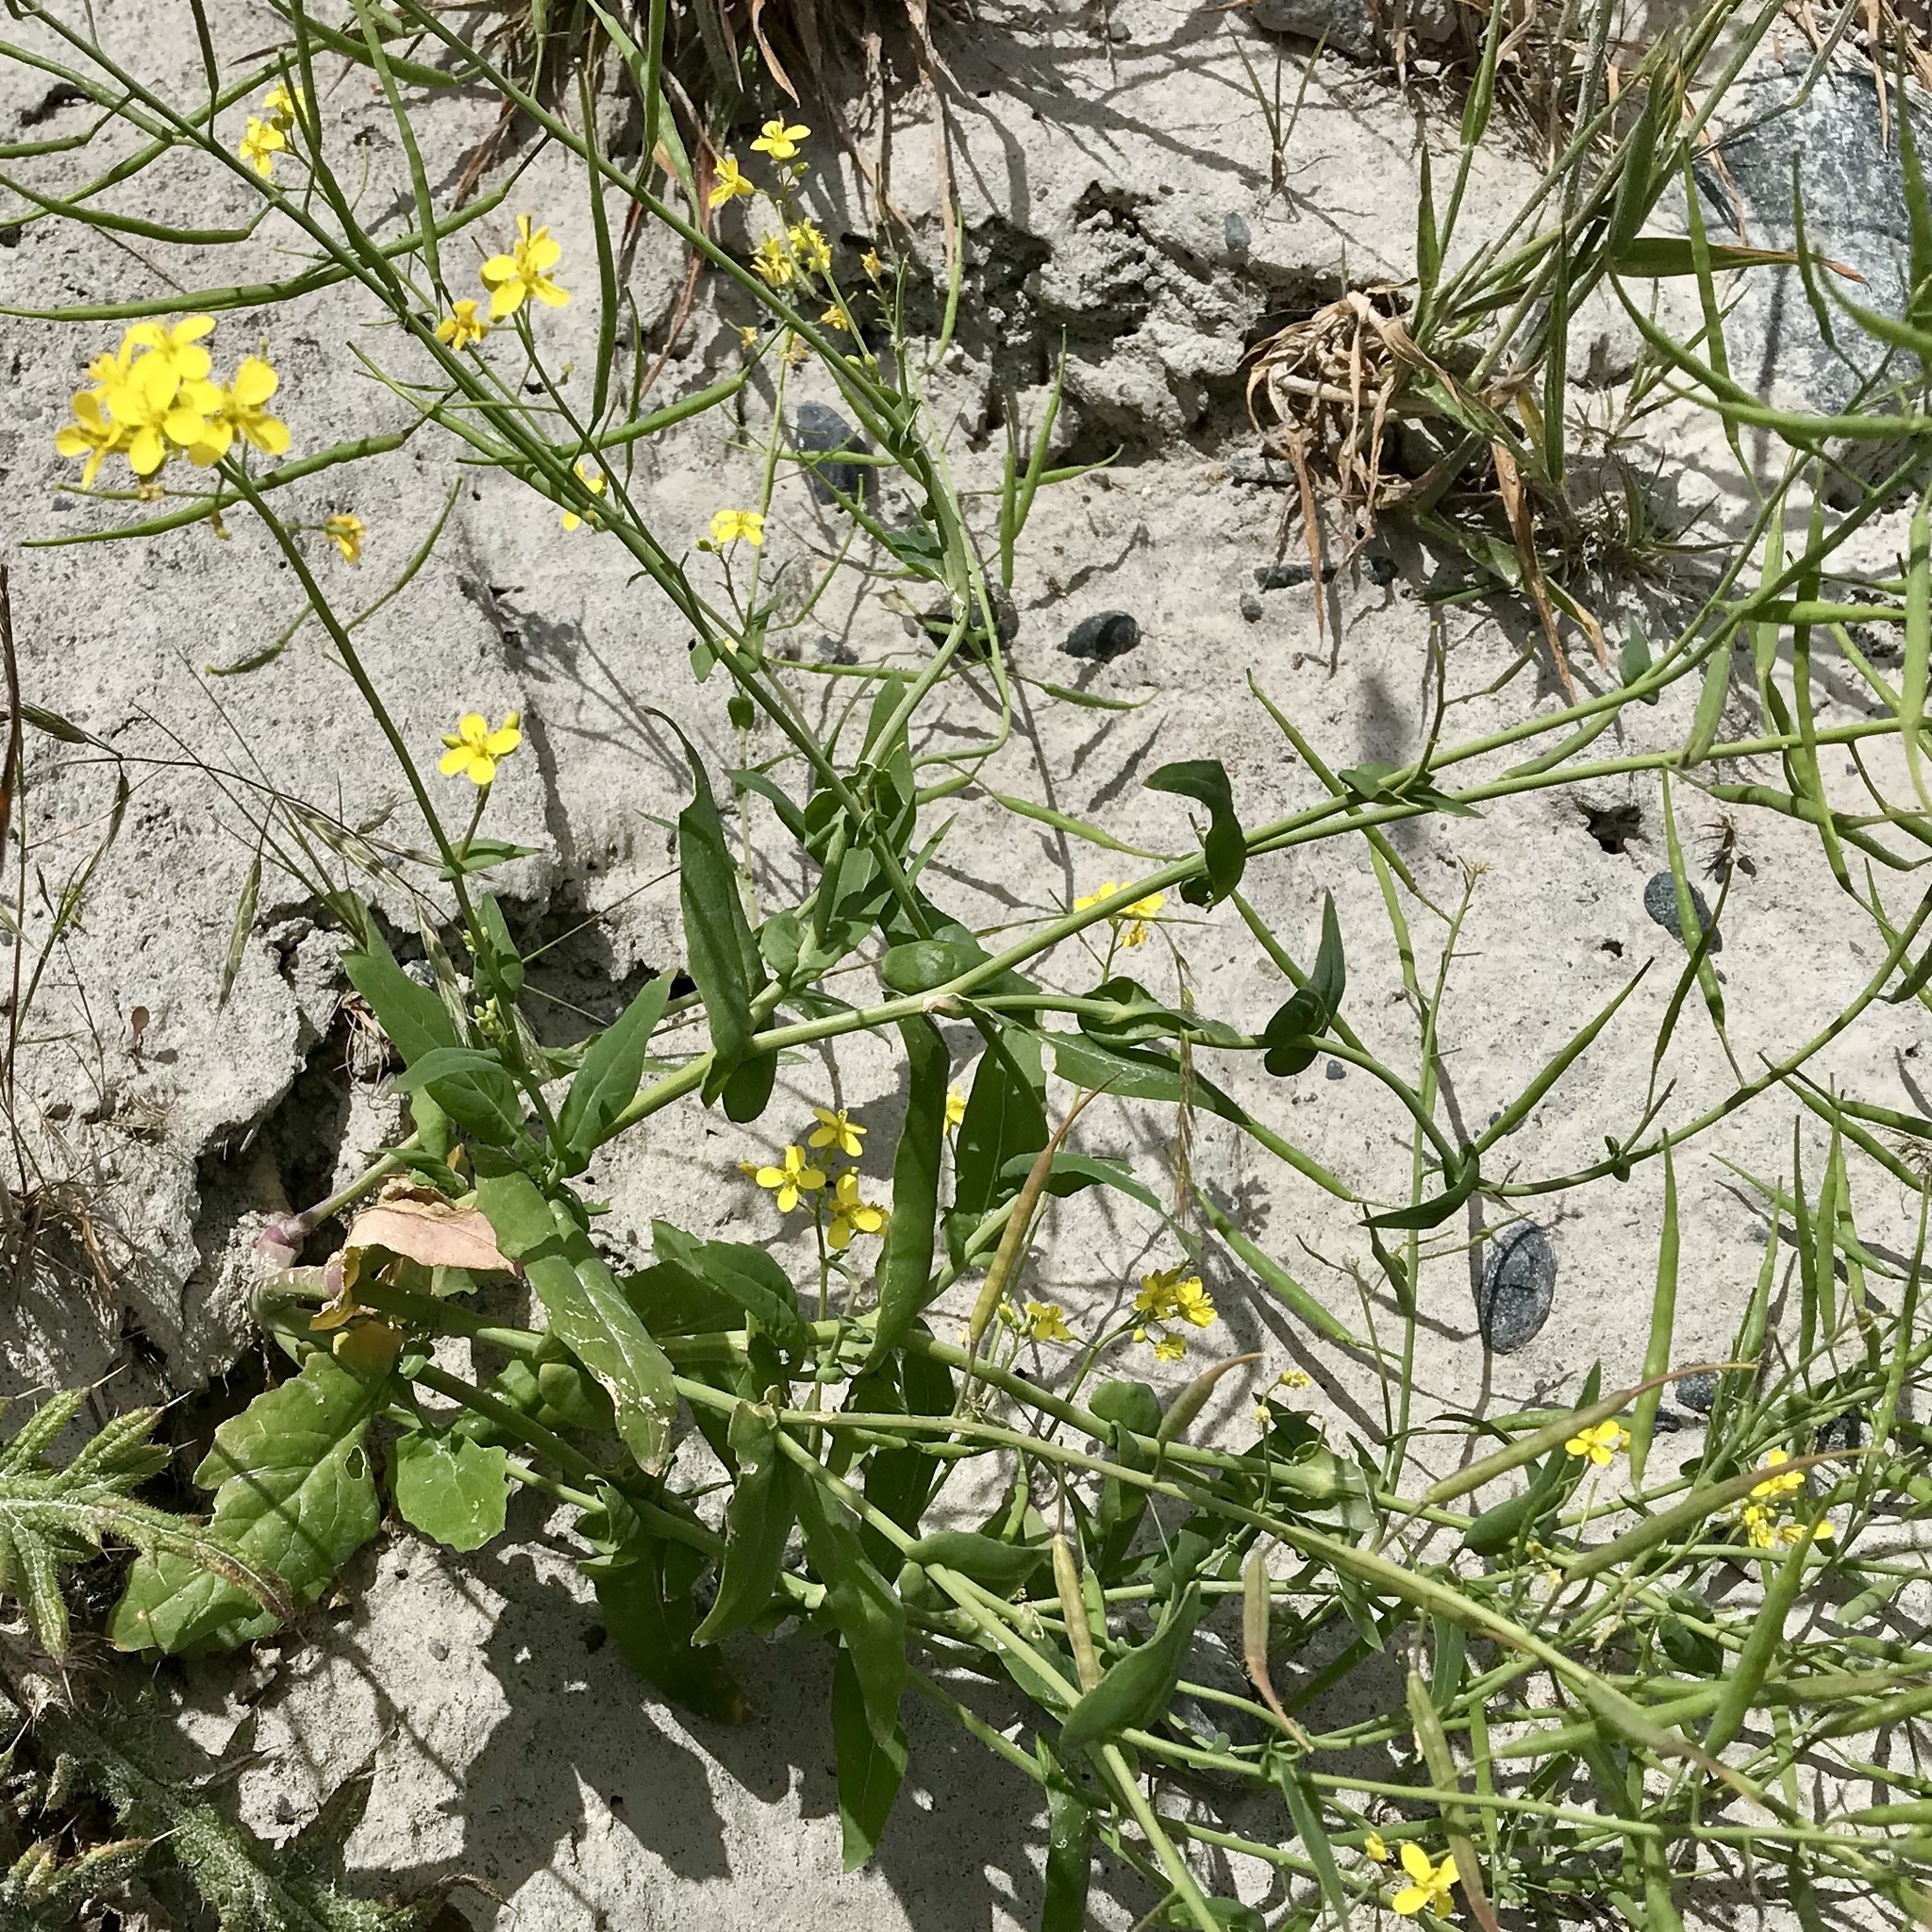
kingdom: Plantae
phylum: Tracheophyta
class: Magnoliopsida
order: Brassicales
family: Brassicaceae
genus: Sinapis
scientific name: Sinapis arvensis
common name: Charlock
